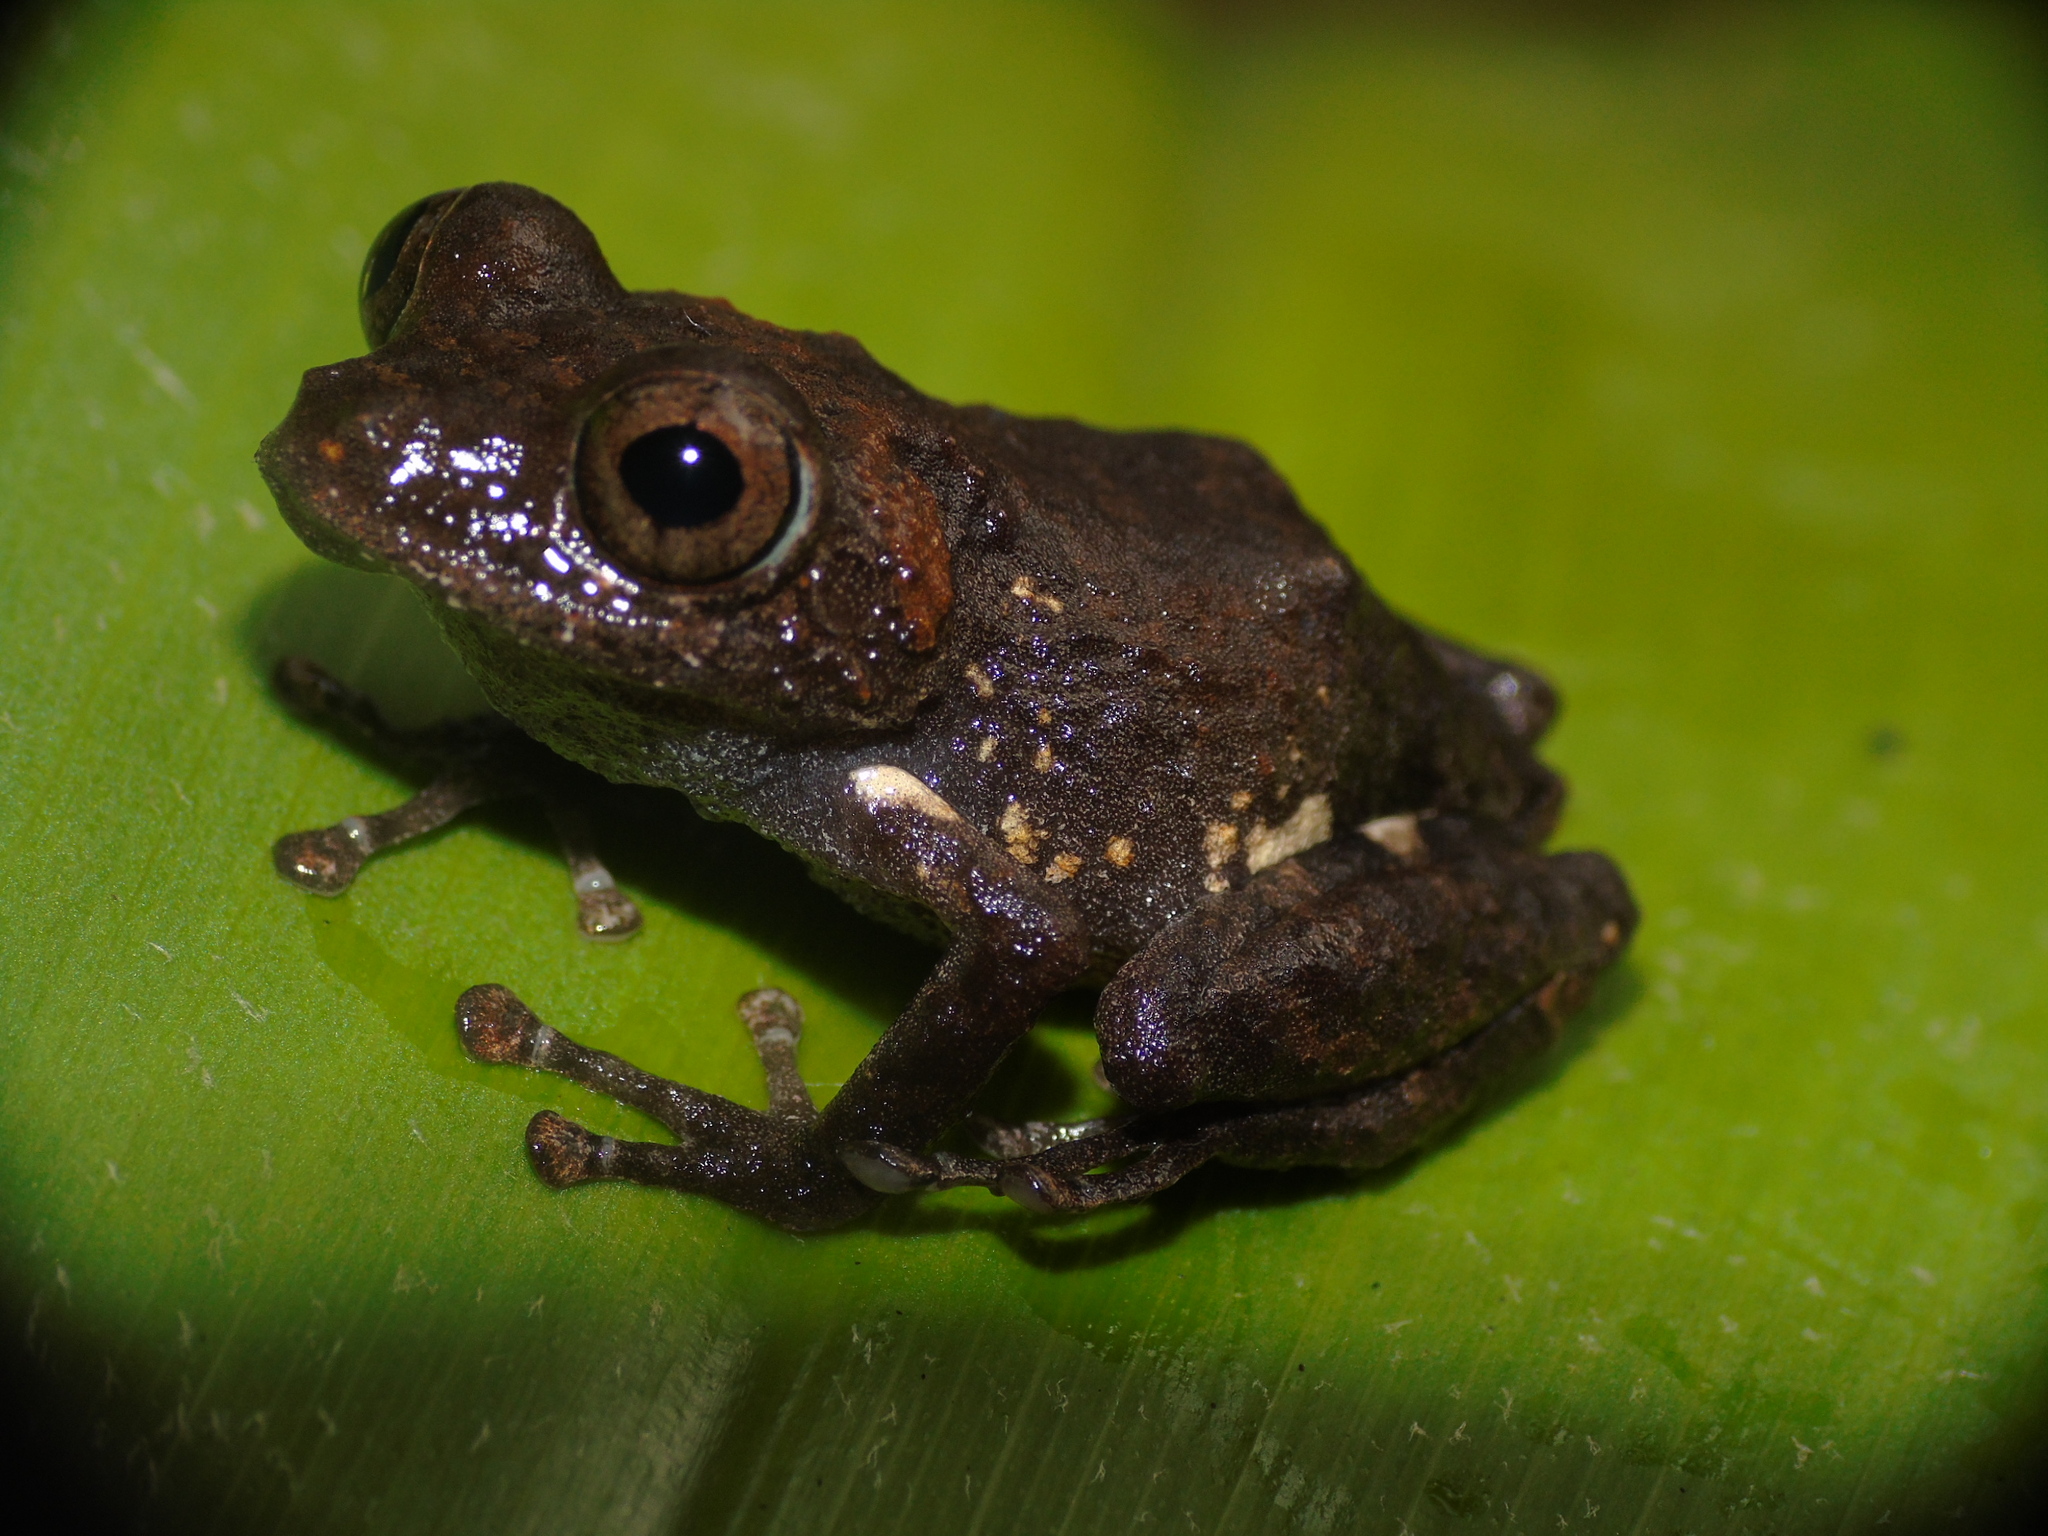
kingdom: Animalia
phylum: Chordata
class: Amphibia
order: Anura
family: Craugastoridae
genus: Pristimantis
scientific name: Pristimantis pardalis
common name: Leopard robber frog
